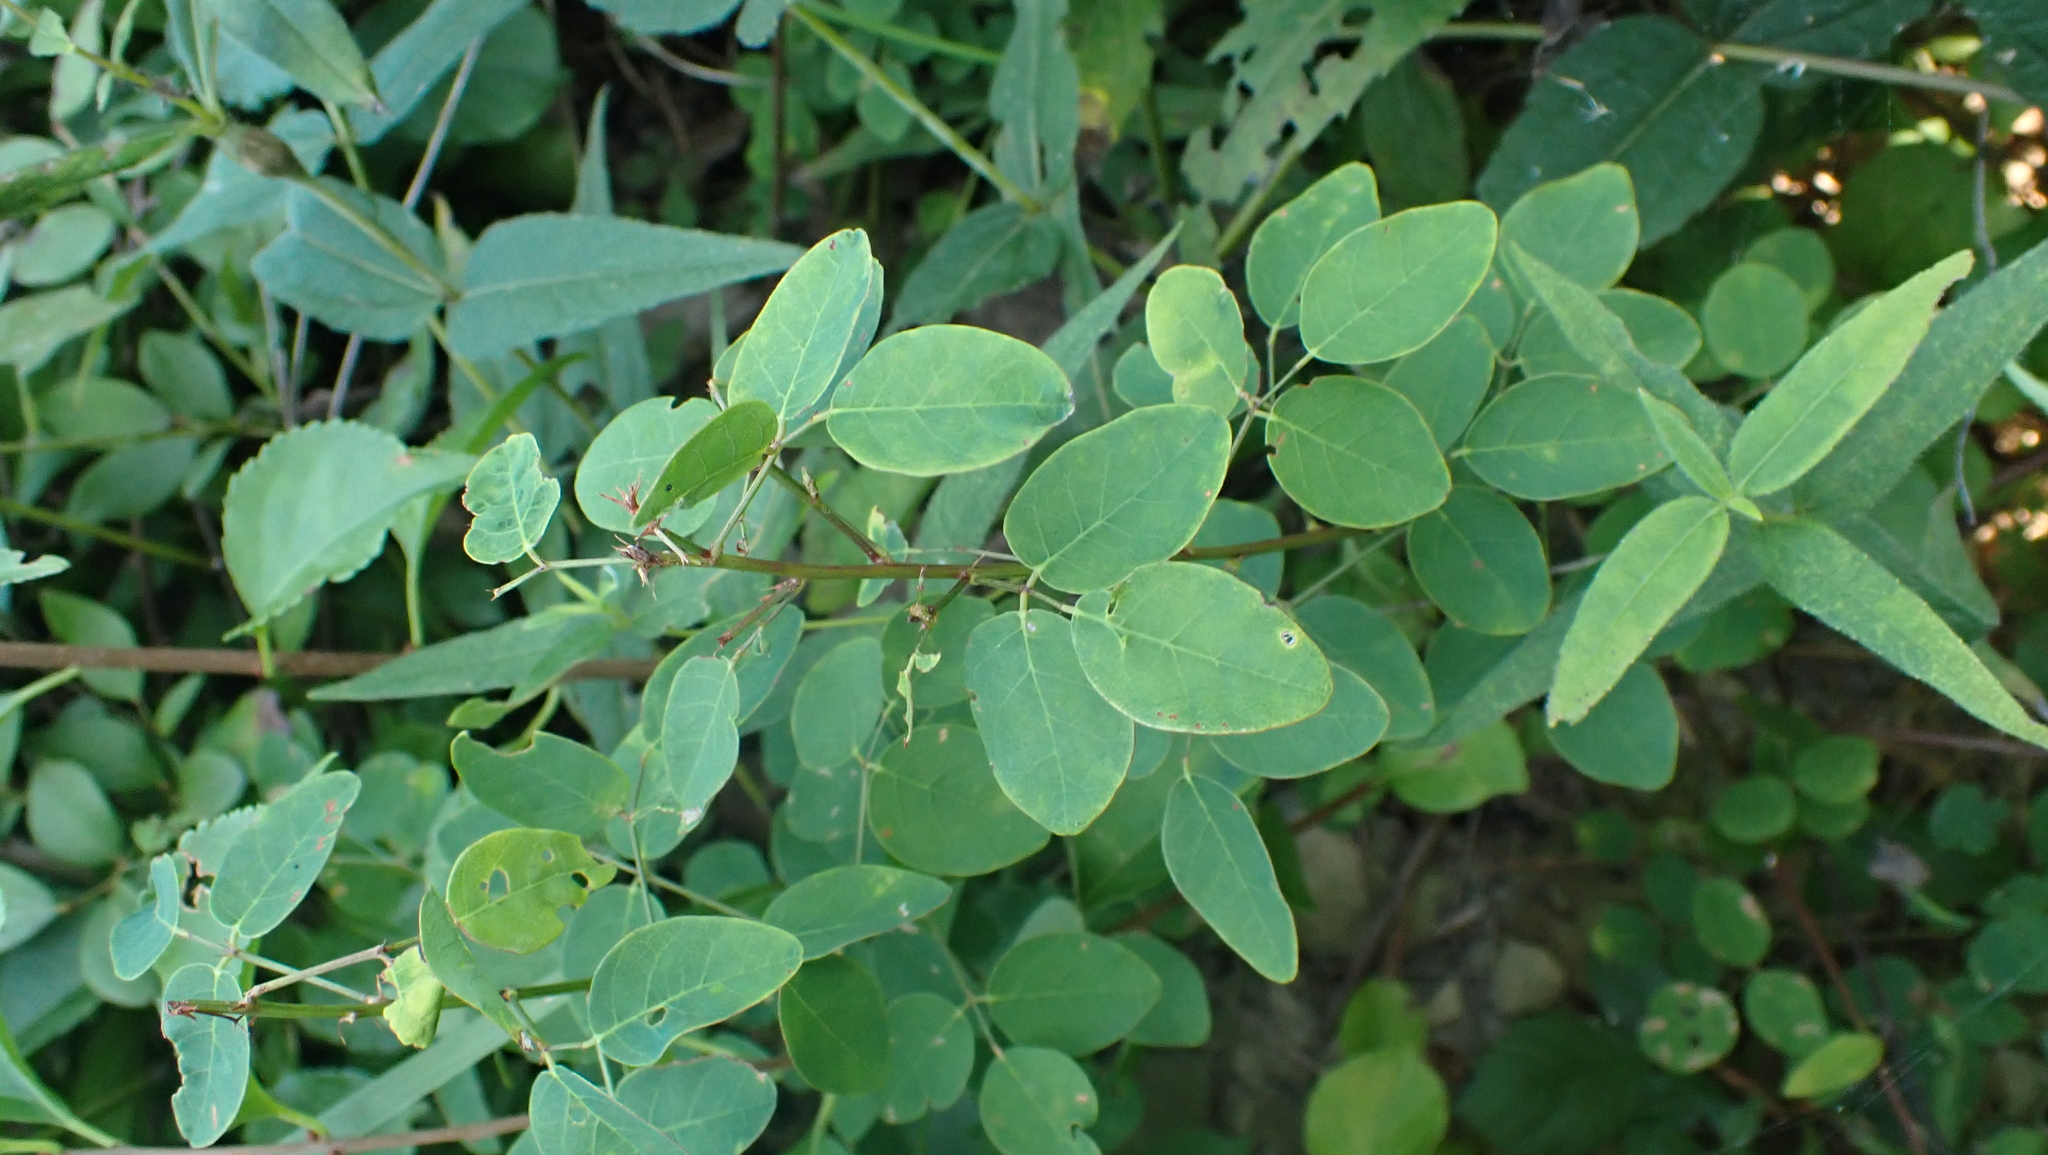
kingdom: Plantae
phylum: Tracheophyta
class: Magnoliopsida
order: Fabales
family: Fabaceae
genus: Desmodium
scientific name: Desmodium marilandicum
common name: Maryland tick-trefoil
